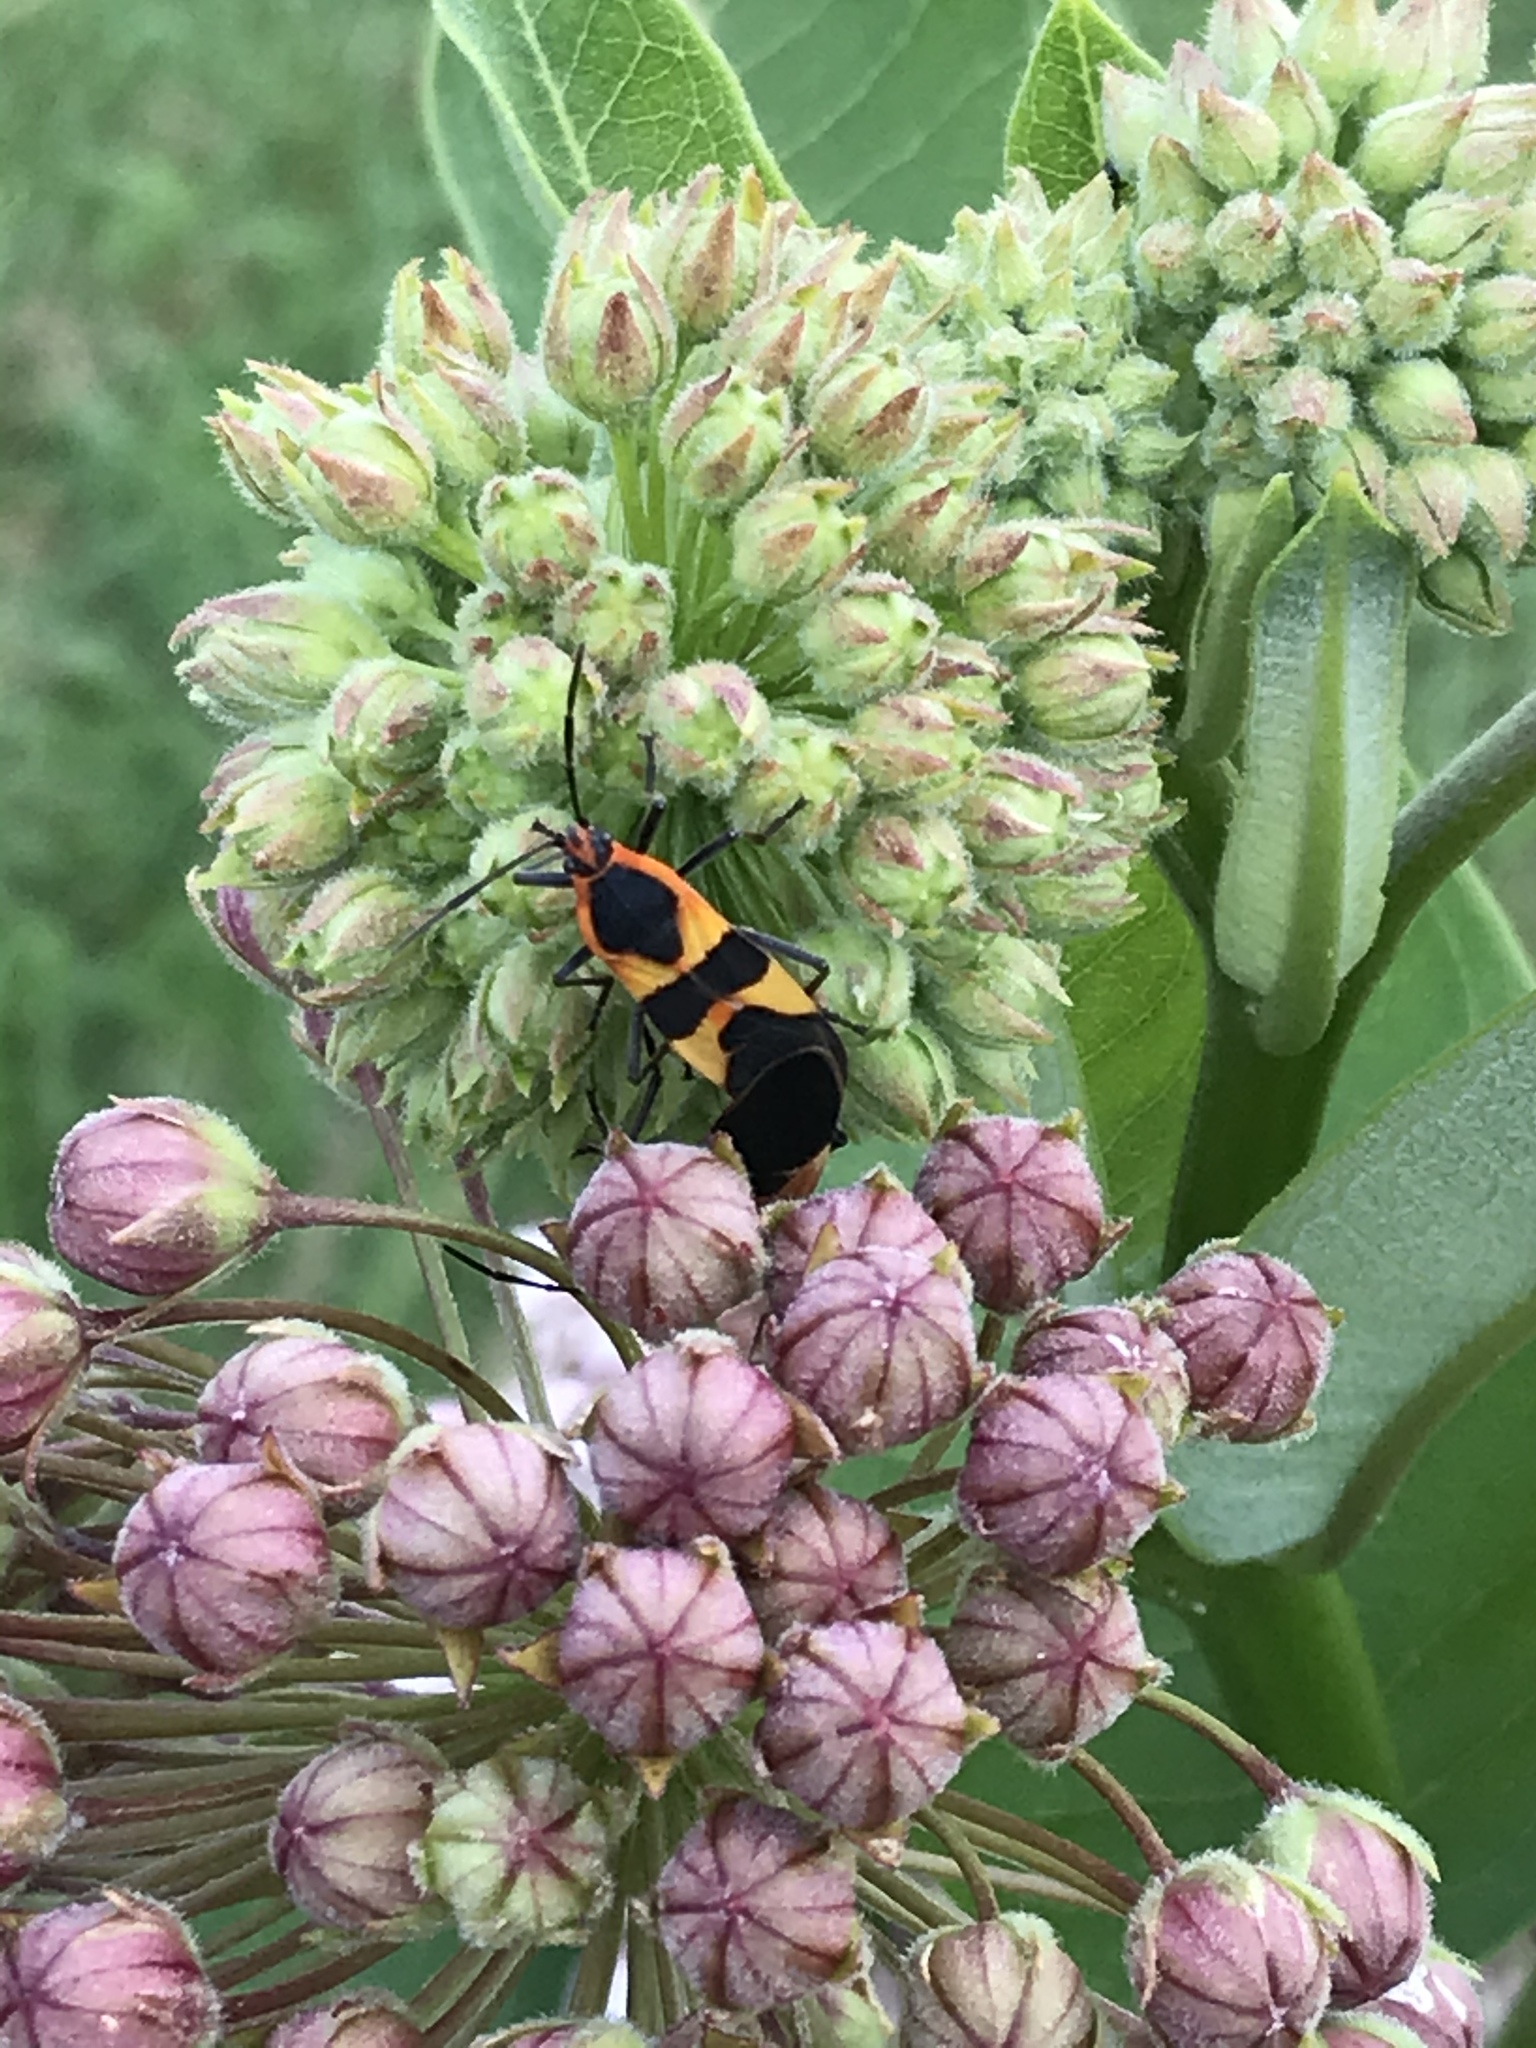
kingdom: Animalia
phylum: Arthropoda
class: Insecta
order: Hemiptera
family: Lygaeidae
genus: Oncopeltus
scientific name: Oncopeltus fasciatus
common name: Large milkweed bug
